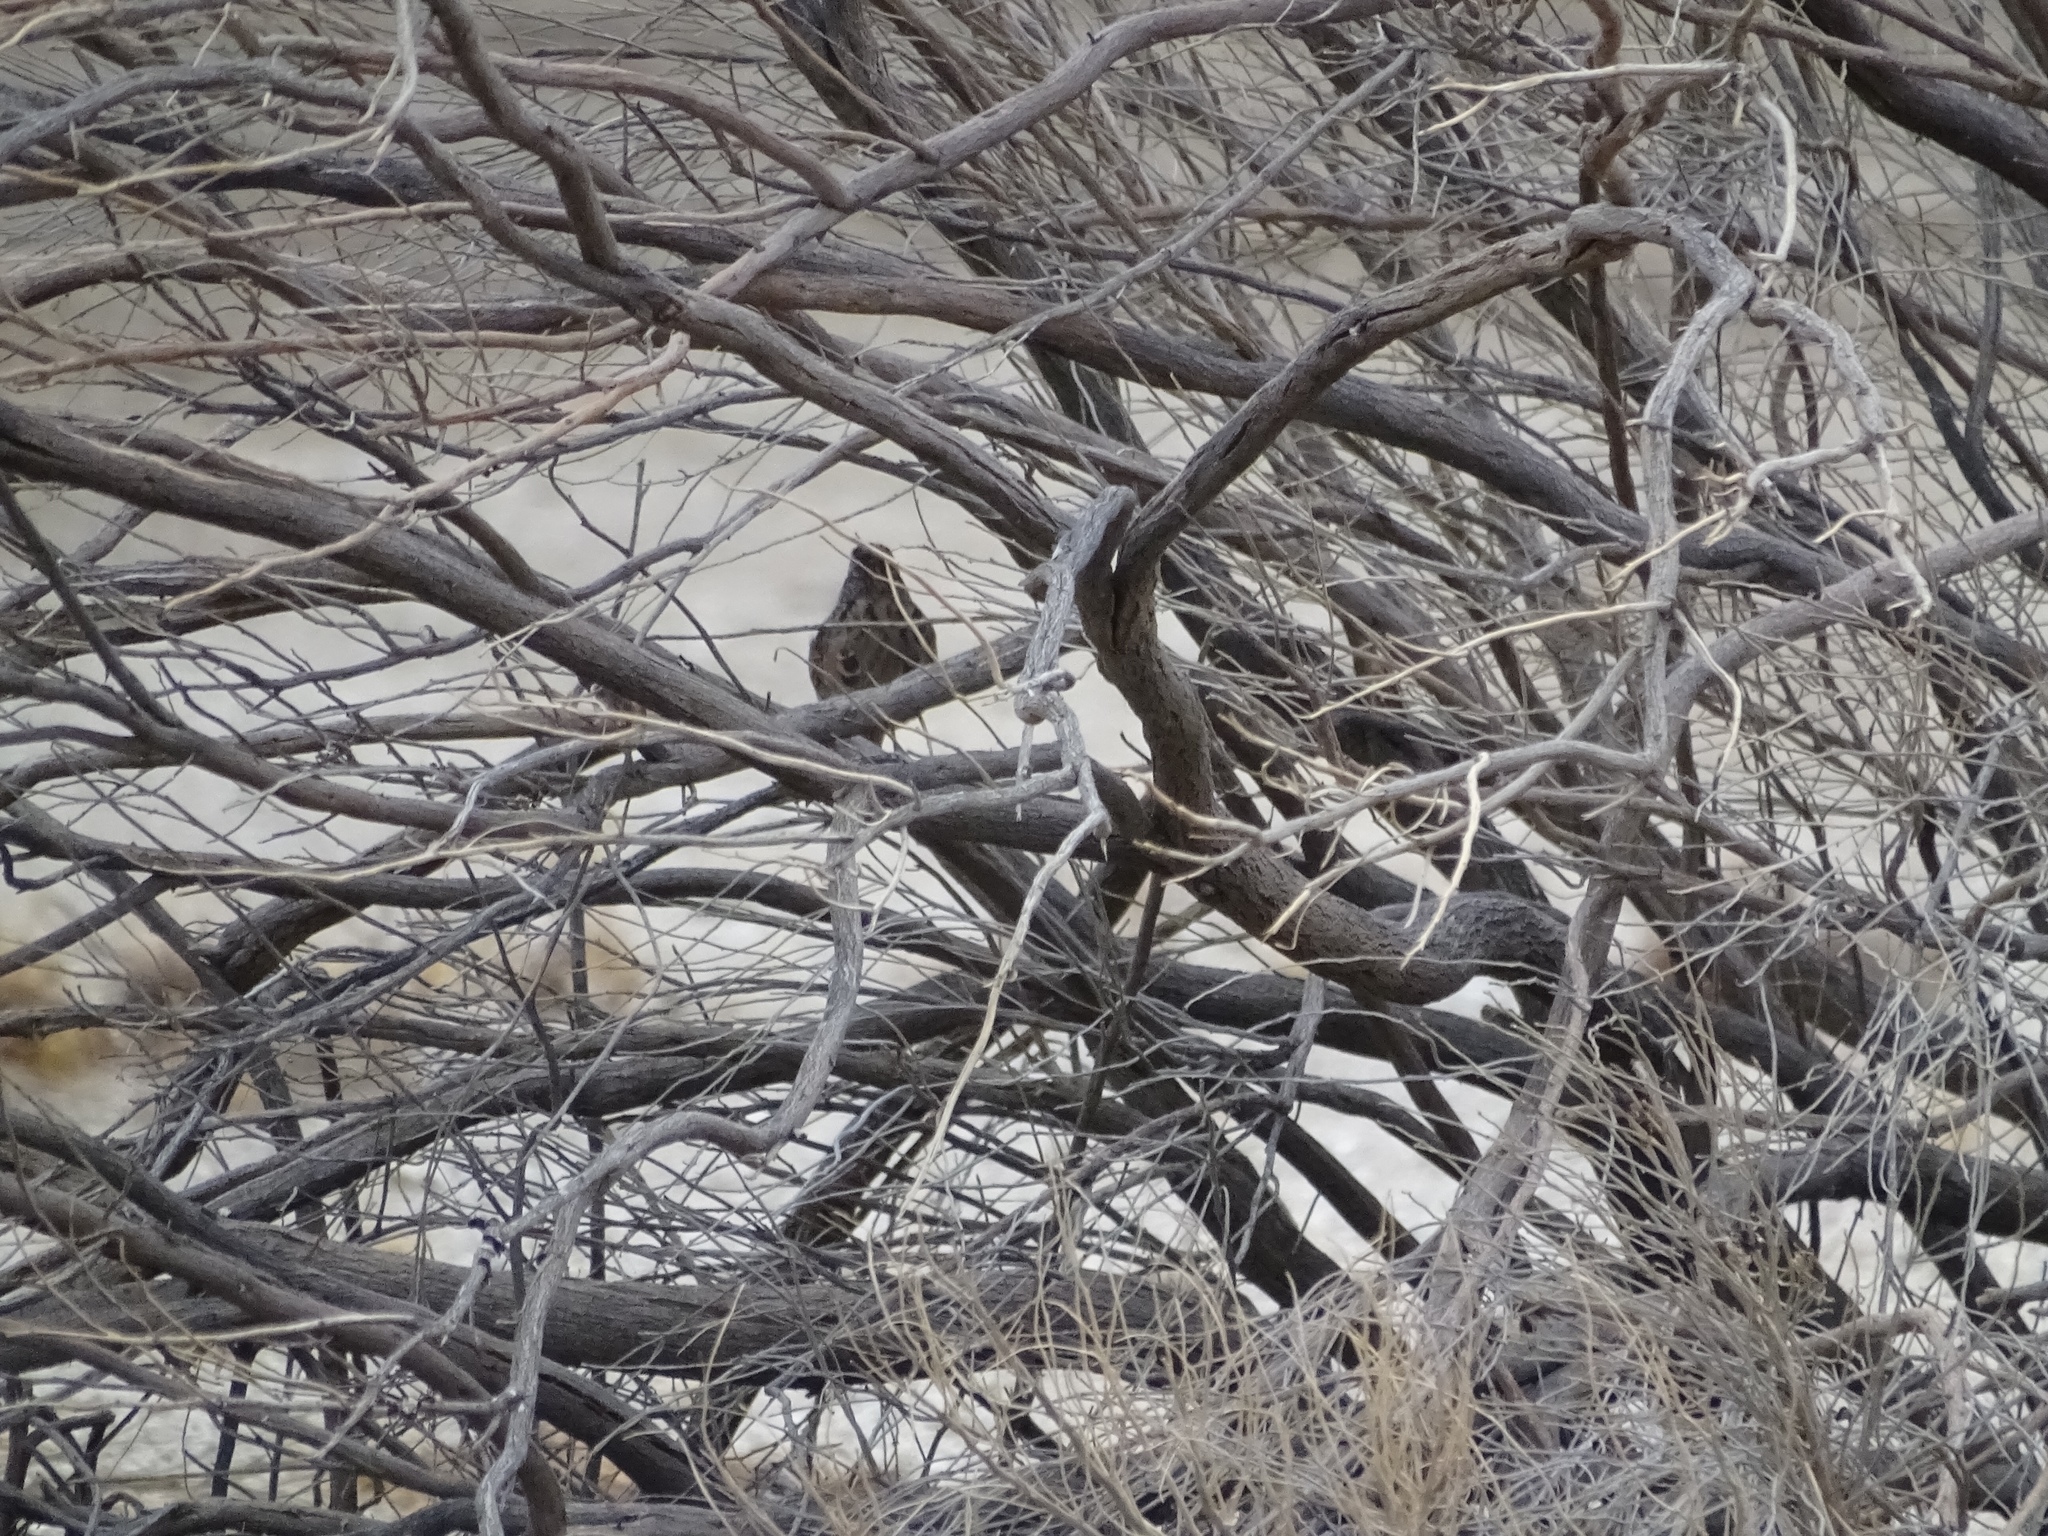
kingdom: Animalia
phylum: Chordata
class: Aves
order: Passeriformes
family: Passerellidae
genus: Melospiza
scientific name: Melospiza melodia
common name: Song sparrow
